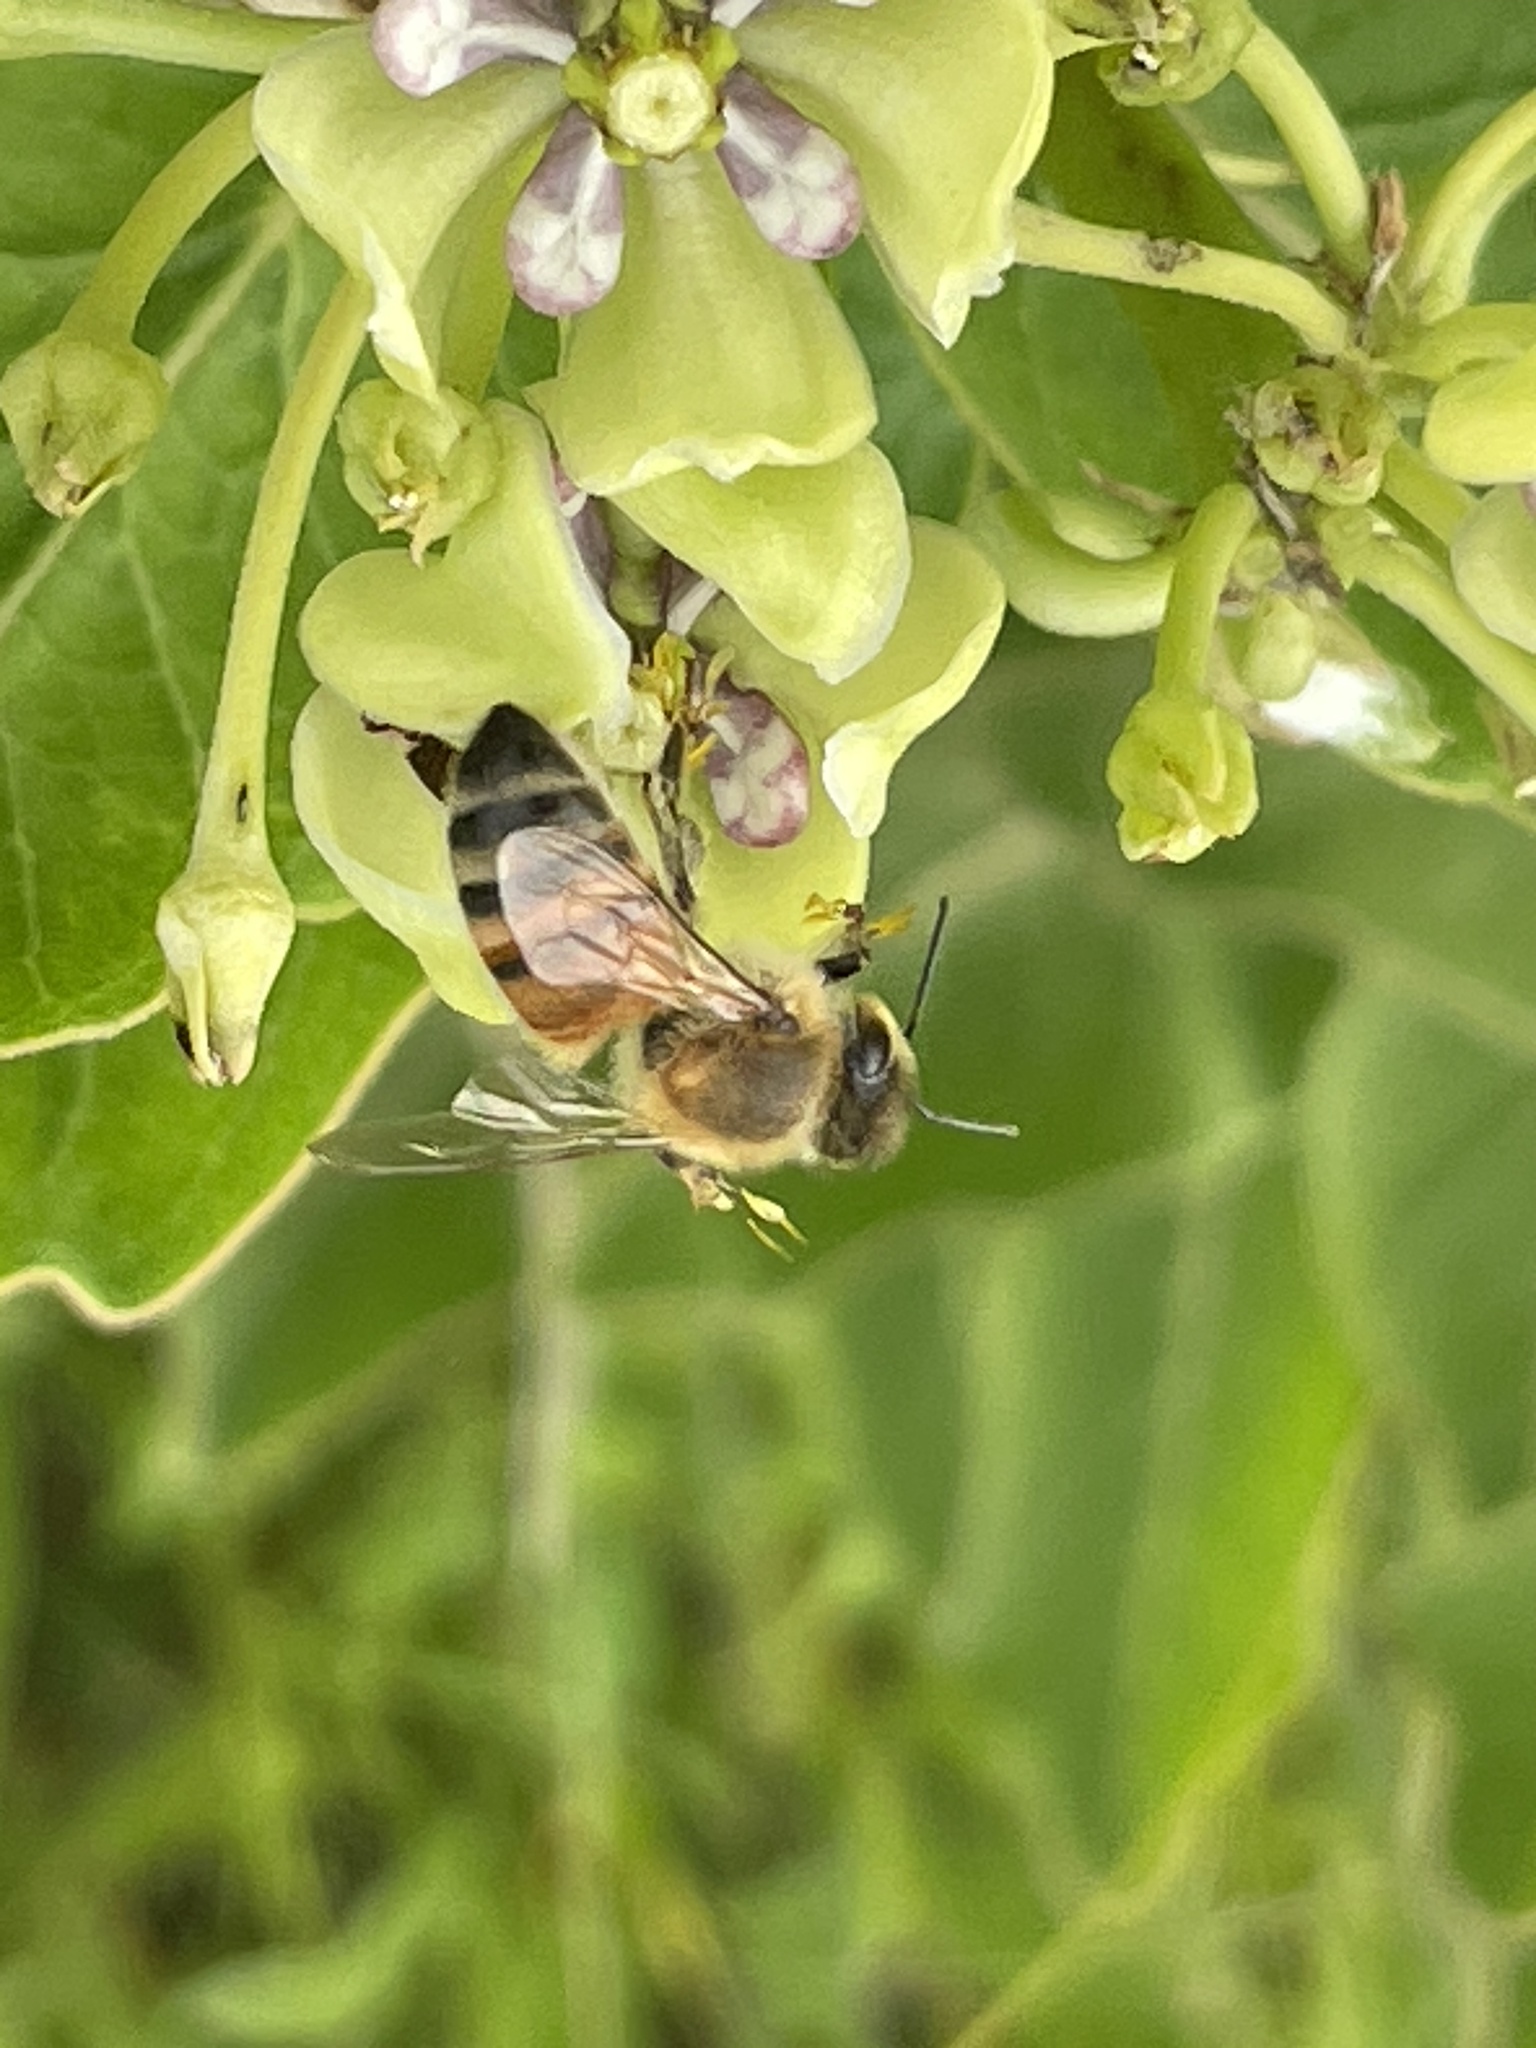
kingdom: Animalia
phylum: Arthropoda
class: Insecta
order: Hymenoptera
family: Apidae
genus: Apis
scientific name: Apis mellifera
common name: Honey bee
